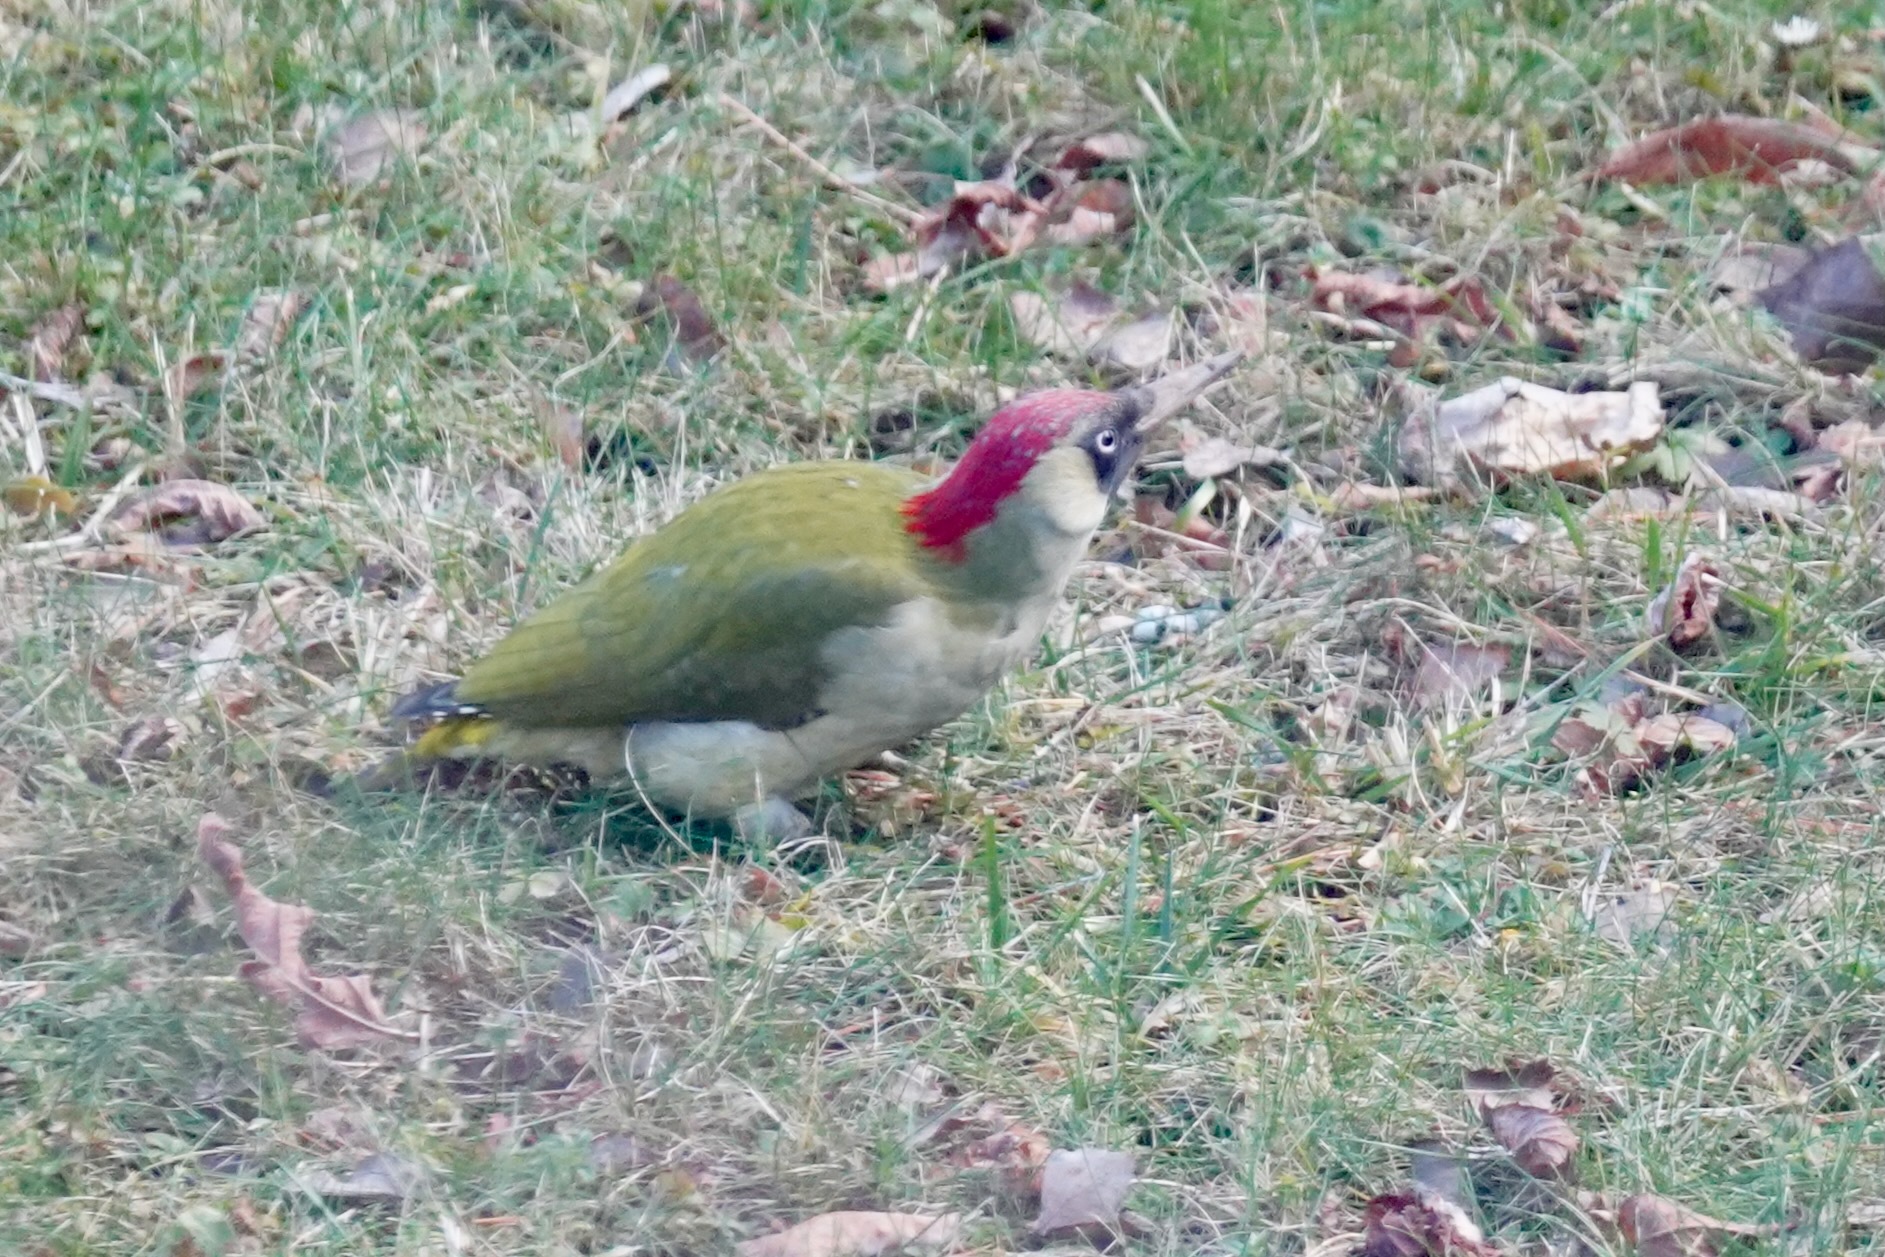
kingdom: Animalia
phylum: Chordata
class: Aves
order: Piciformes
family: Picidae
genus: Picus
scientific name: Picus viridis
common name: European green woodpecker
